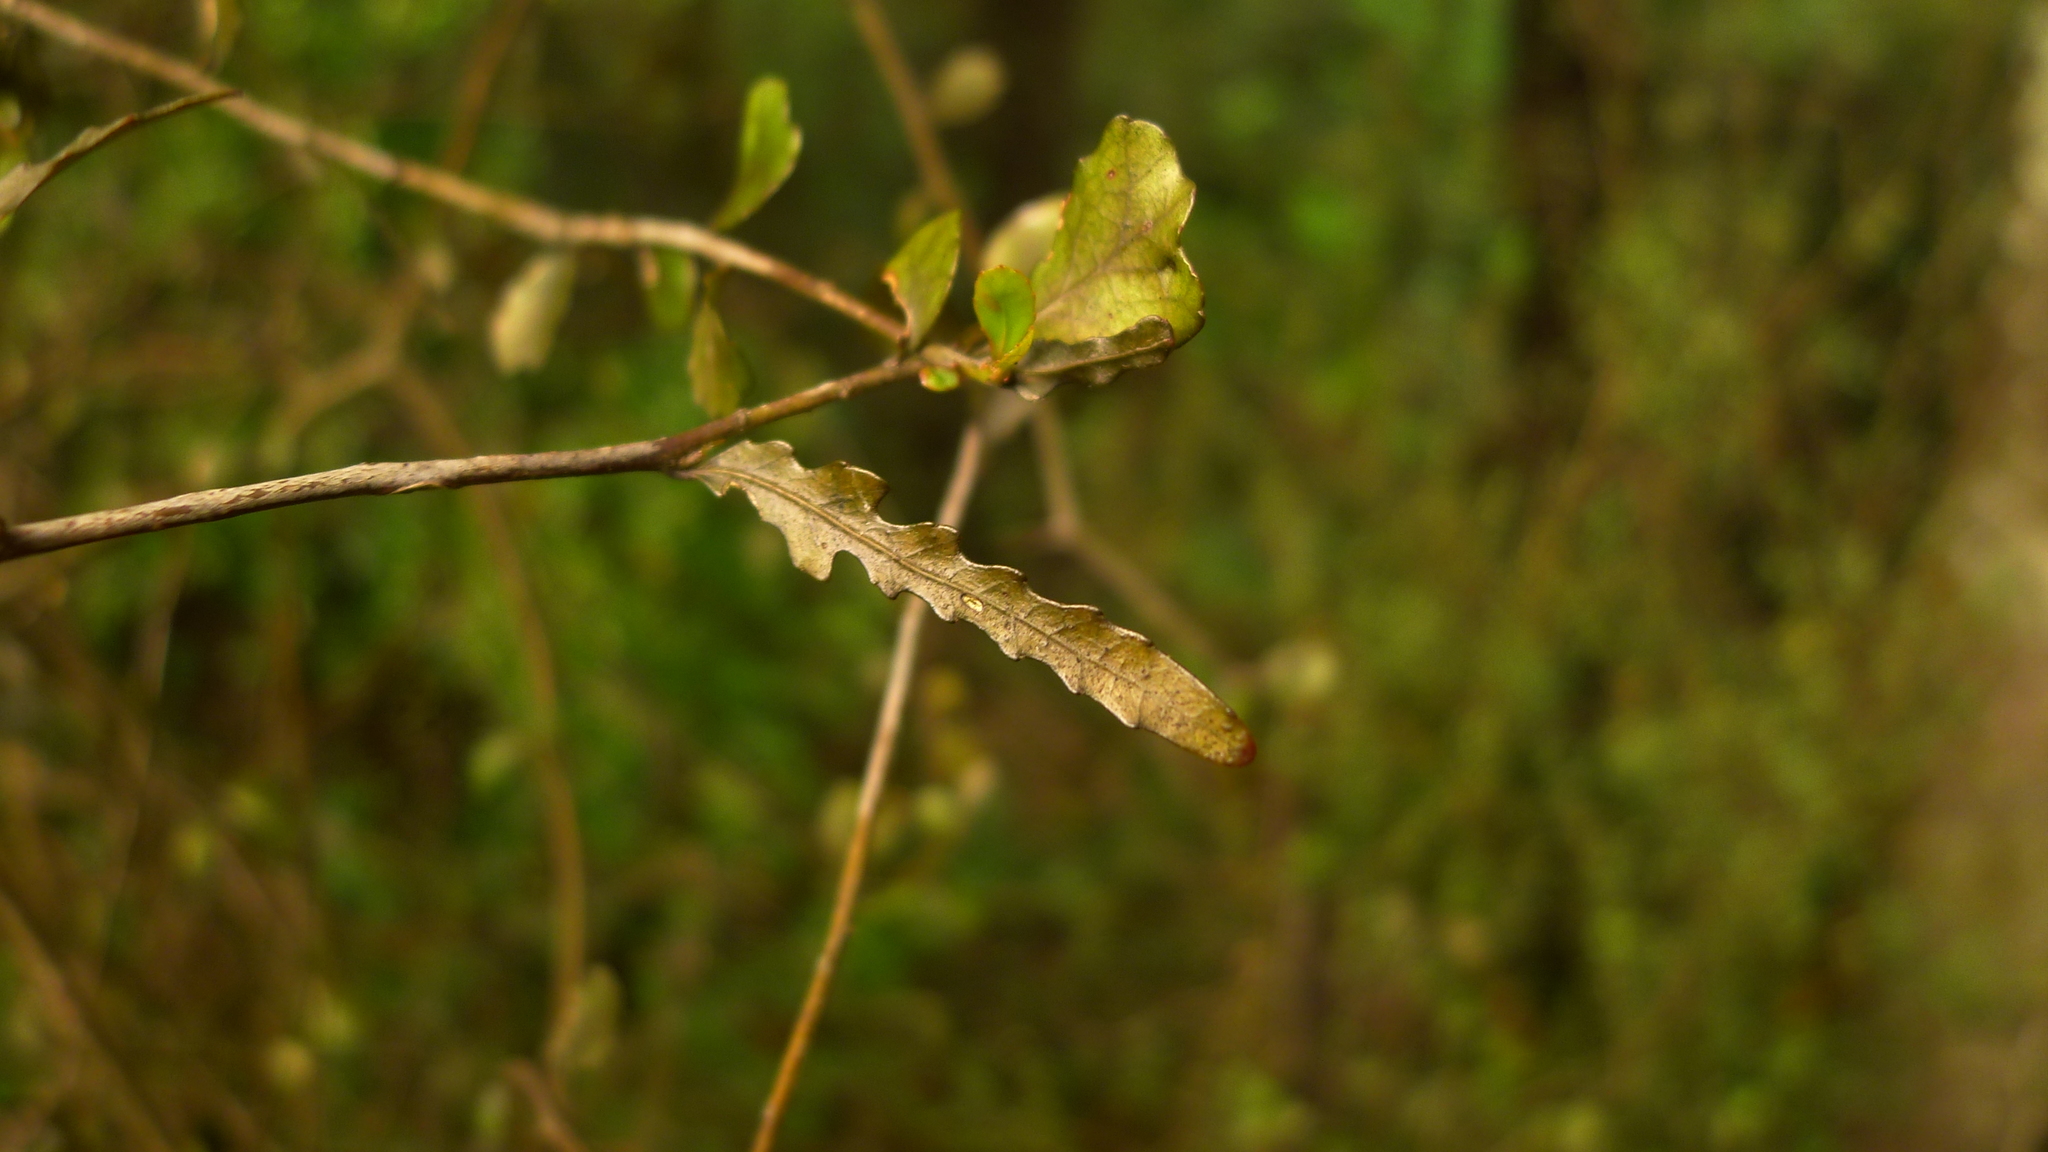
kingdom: Plantae
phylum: Tracheophyta
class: Magnoliopsida
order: Oxalidales
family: Elaeocarpaceae
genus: Elaeocarpus
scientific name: Elaeocarpus hookerianus
